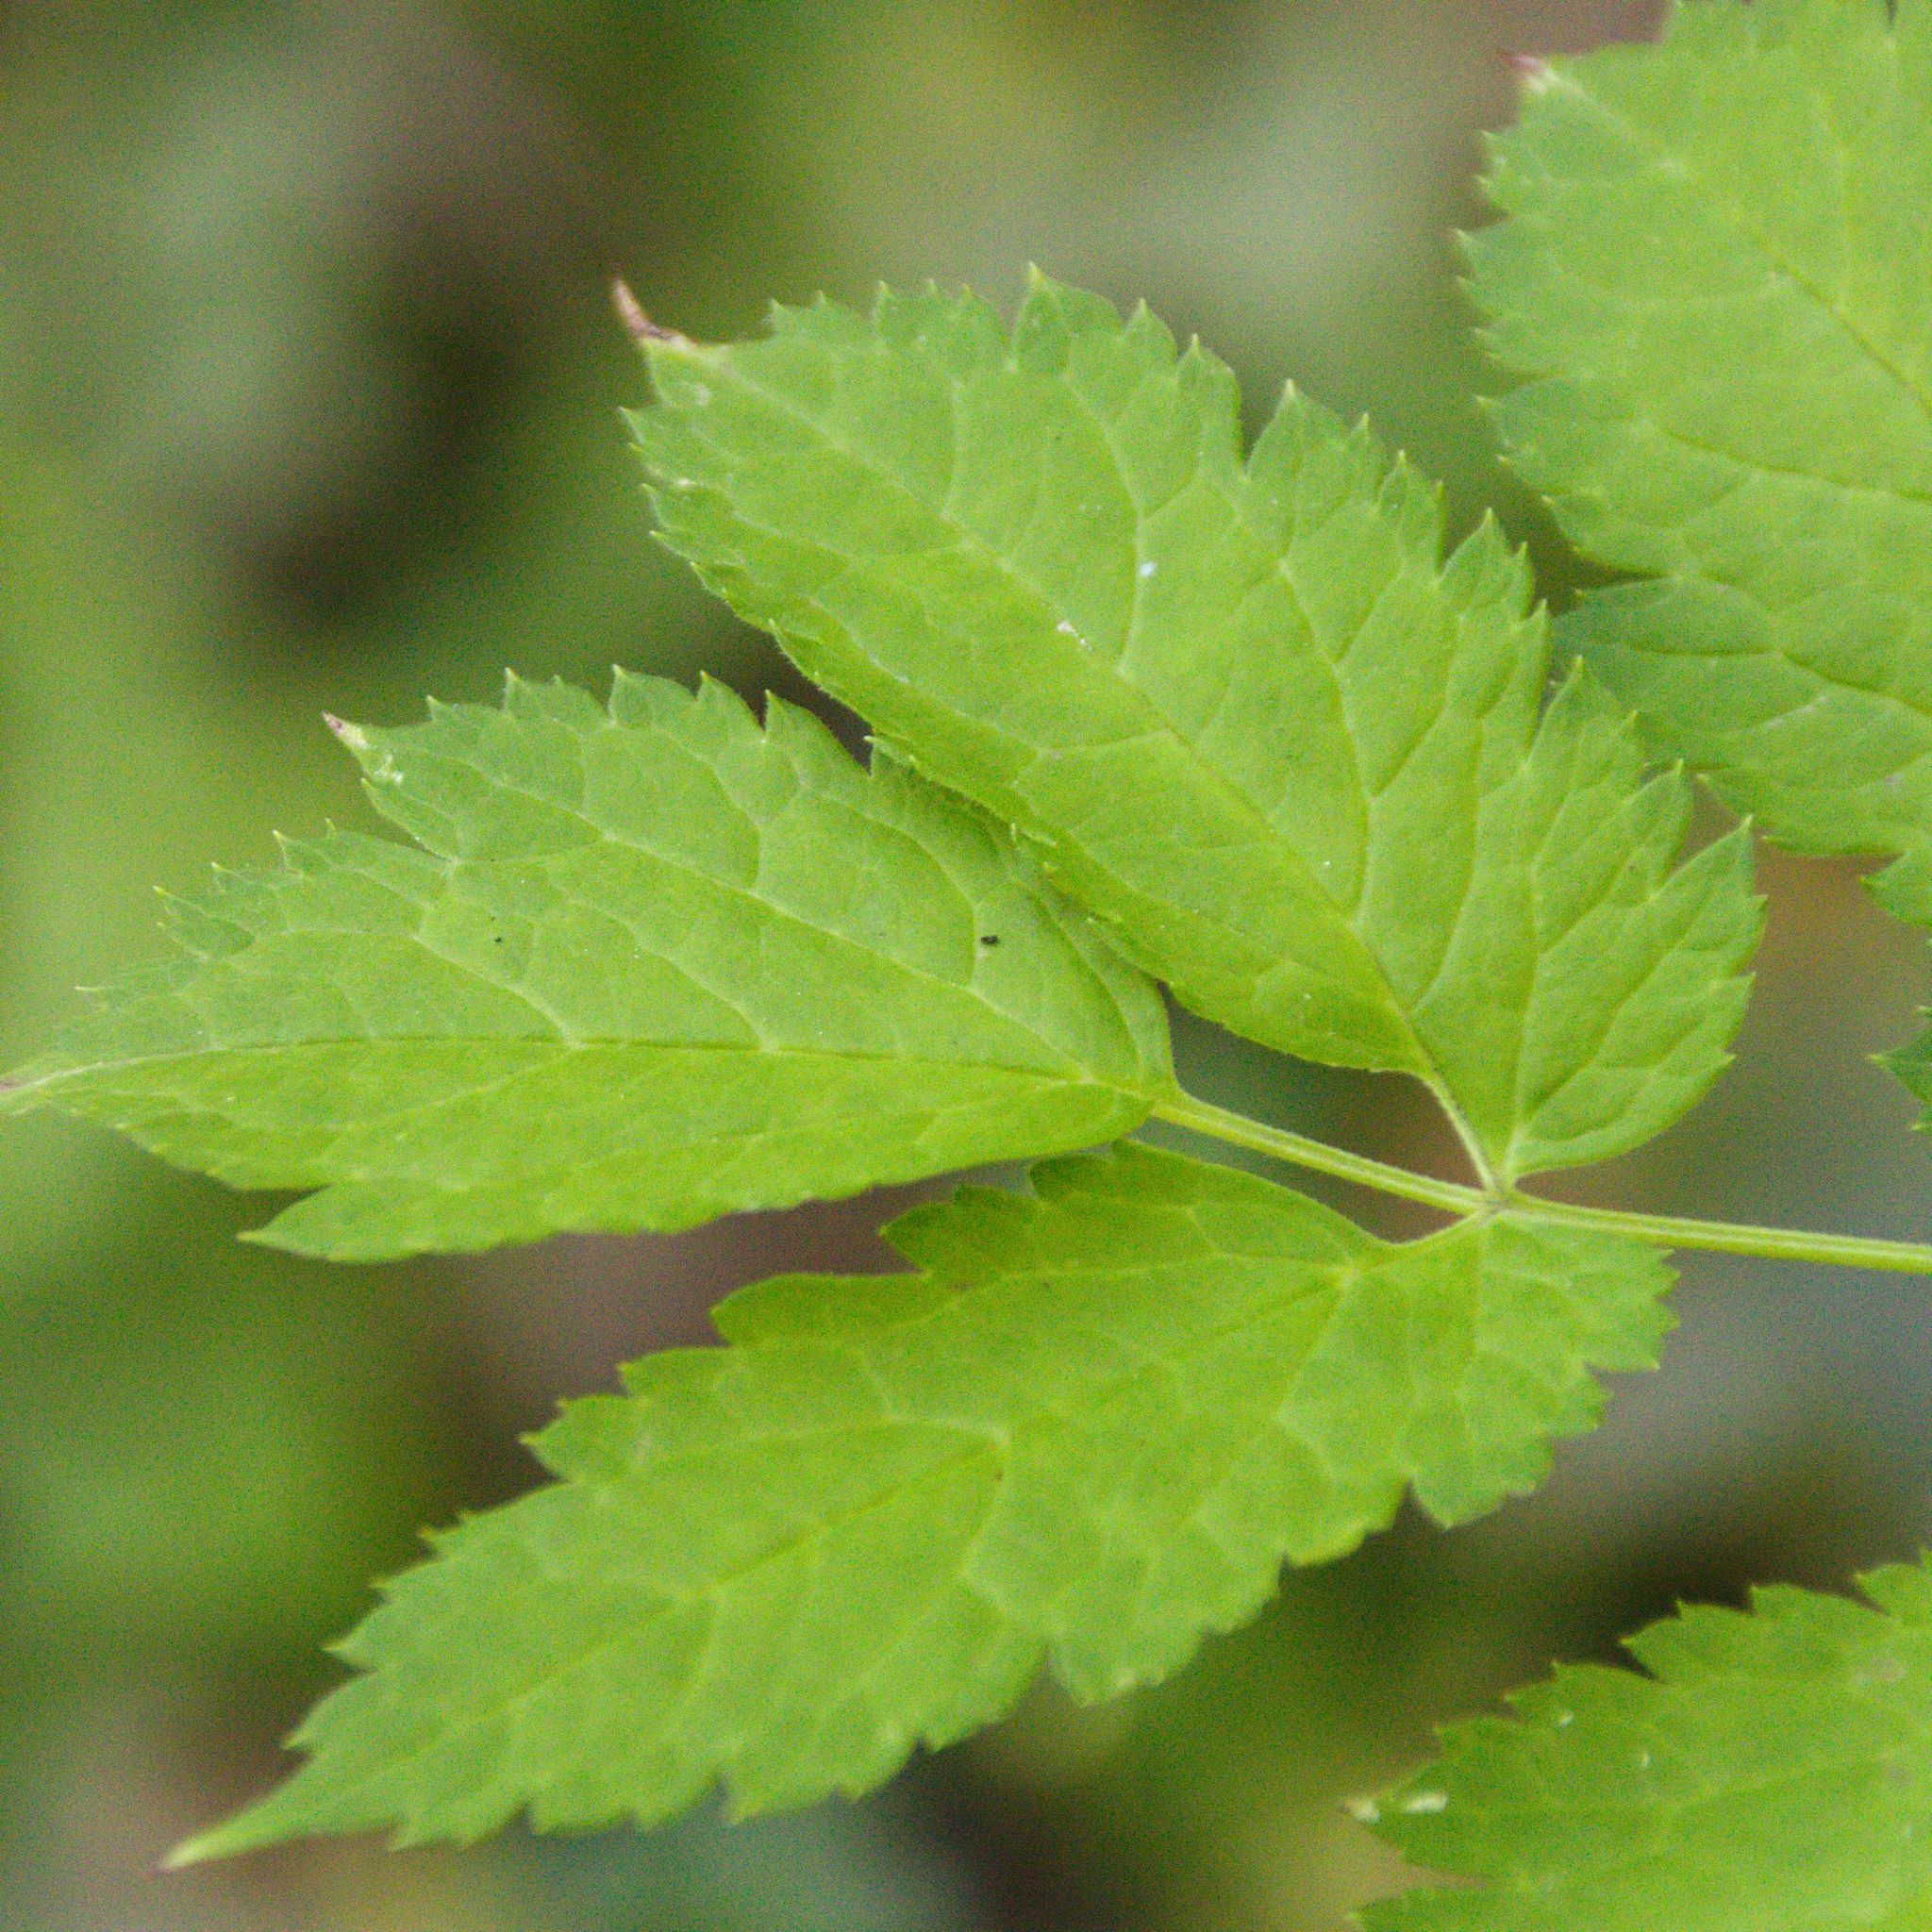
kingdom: Plantae
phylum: Tracheophyta
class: Magnoliopsida
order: Ranunculales
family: Ranunculaceae
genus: Actaea
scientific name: Actaea spicata
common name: Baneberry
